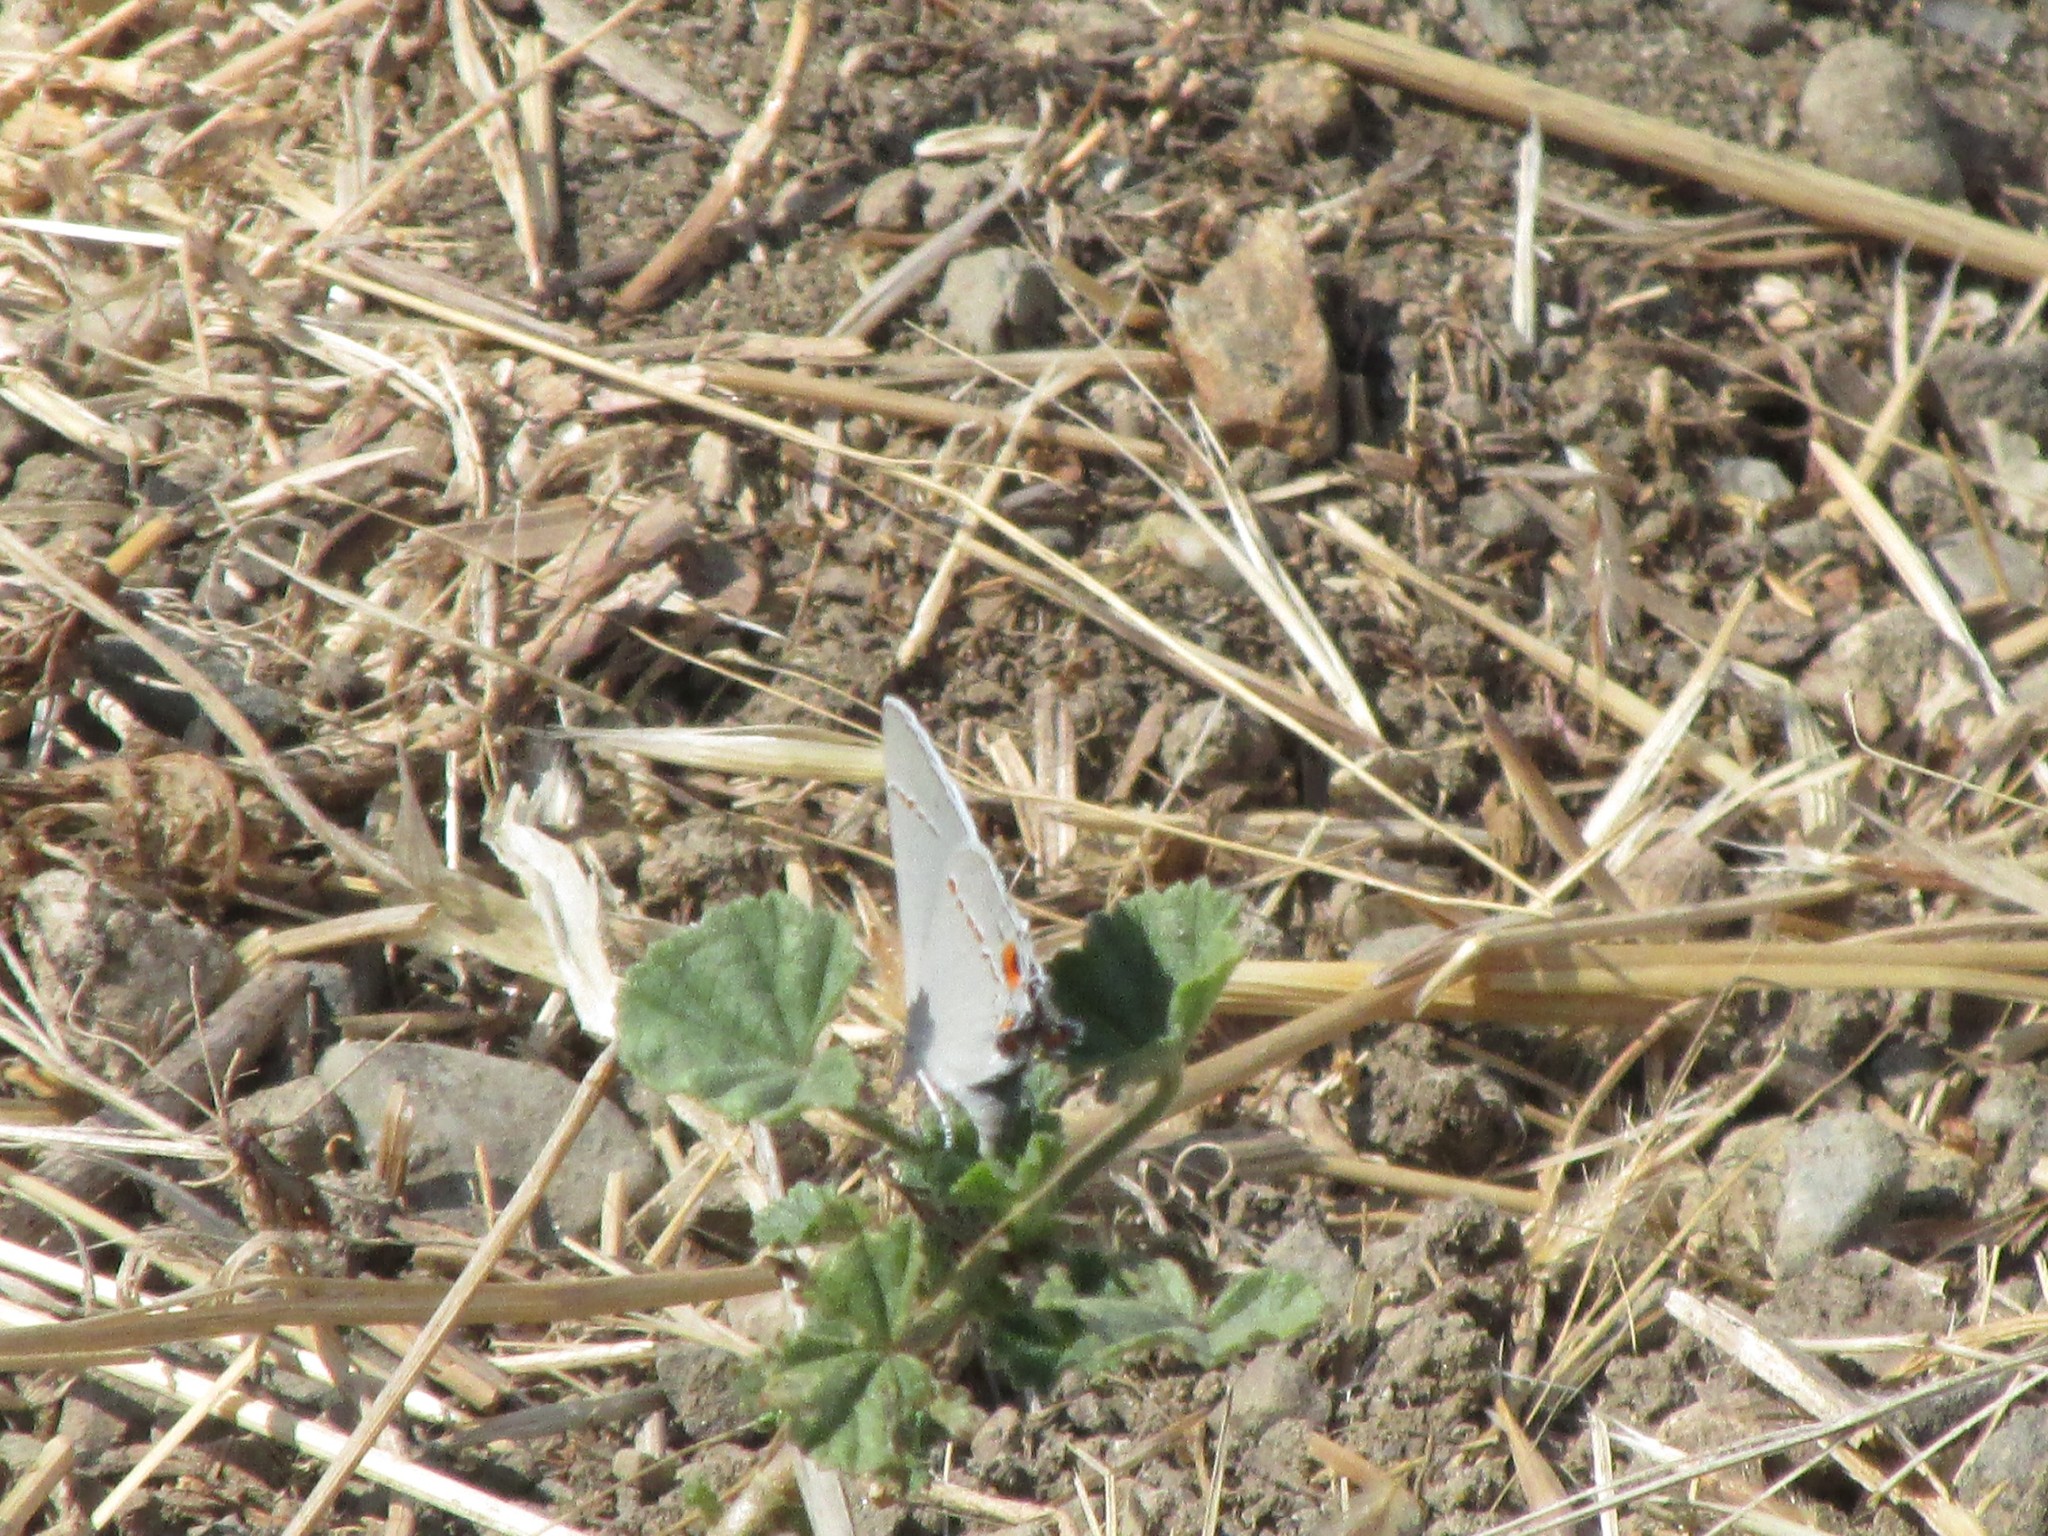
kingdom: Animalia
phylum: Arthropoda
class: Insecta
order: Lepidoptera
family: Lycaenidae
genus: Strymon
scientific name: Strymon melinus
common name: Gray hairstreak
